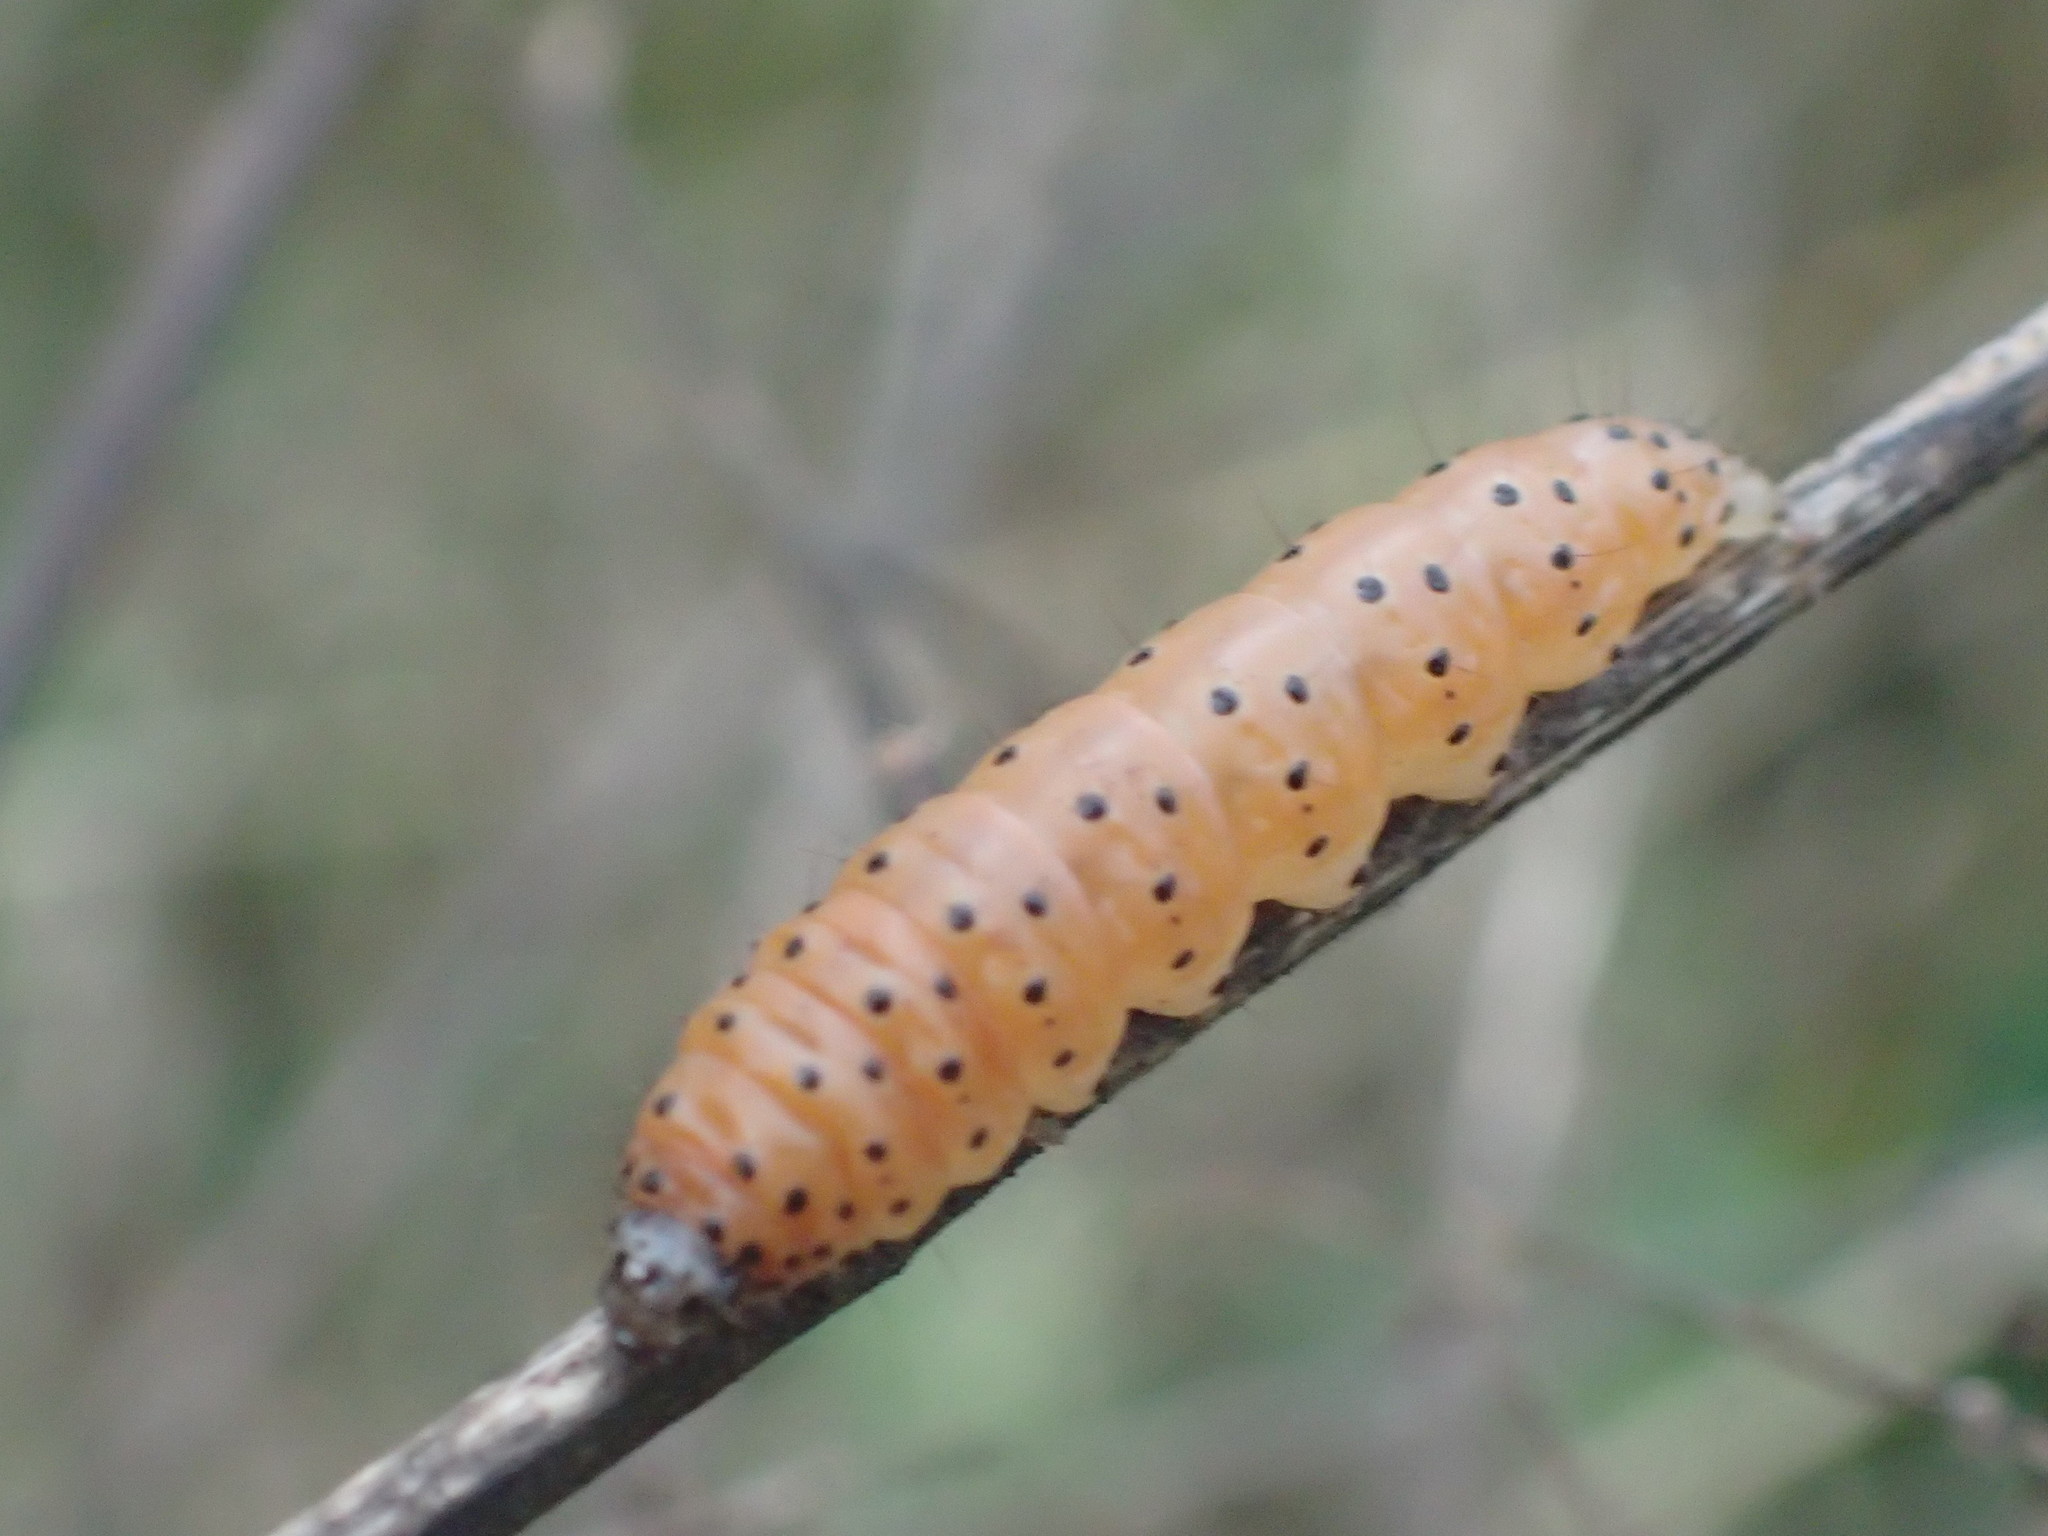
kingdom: Animalia
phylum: Arthropoda
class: Insecta
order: Lepidoptera
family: Crambidae
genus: Saucrobotys
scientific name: Saucrobotys futilalis
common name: Dogbane saucrobotys moth
